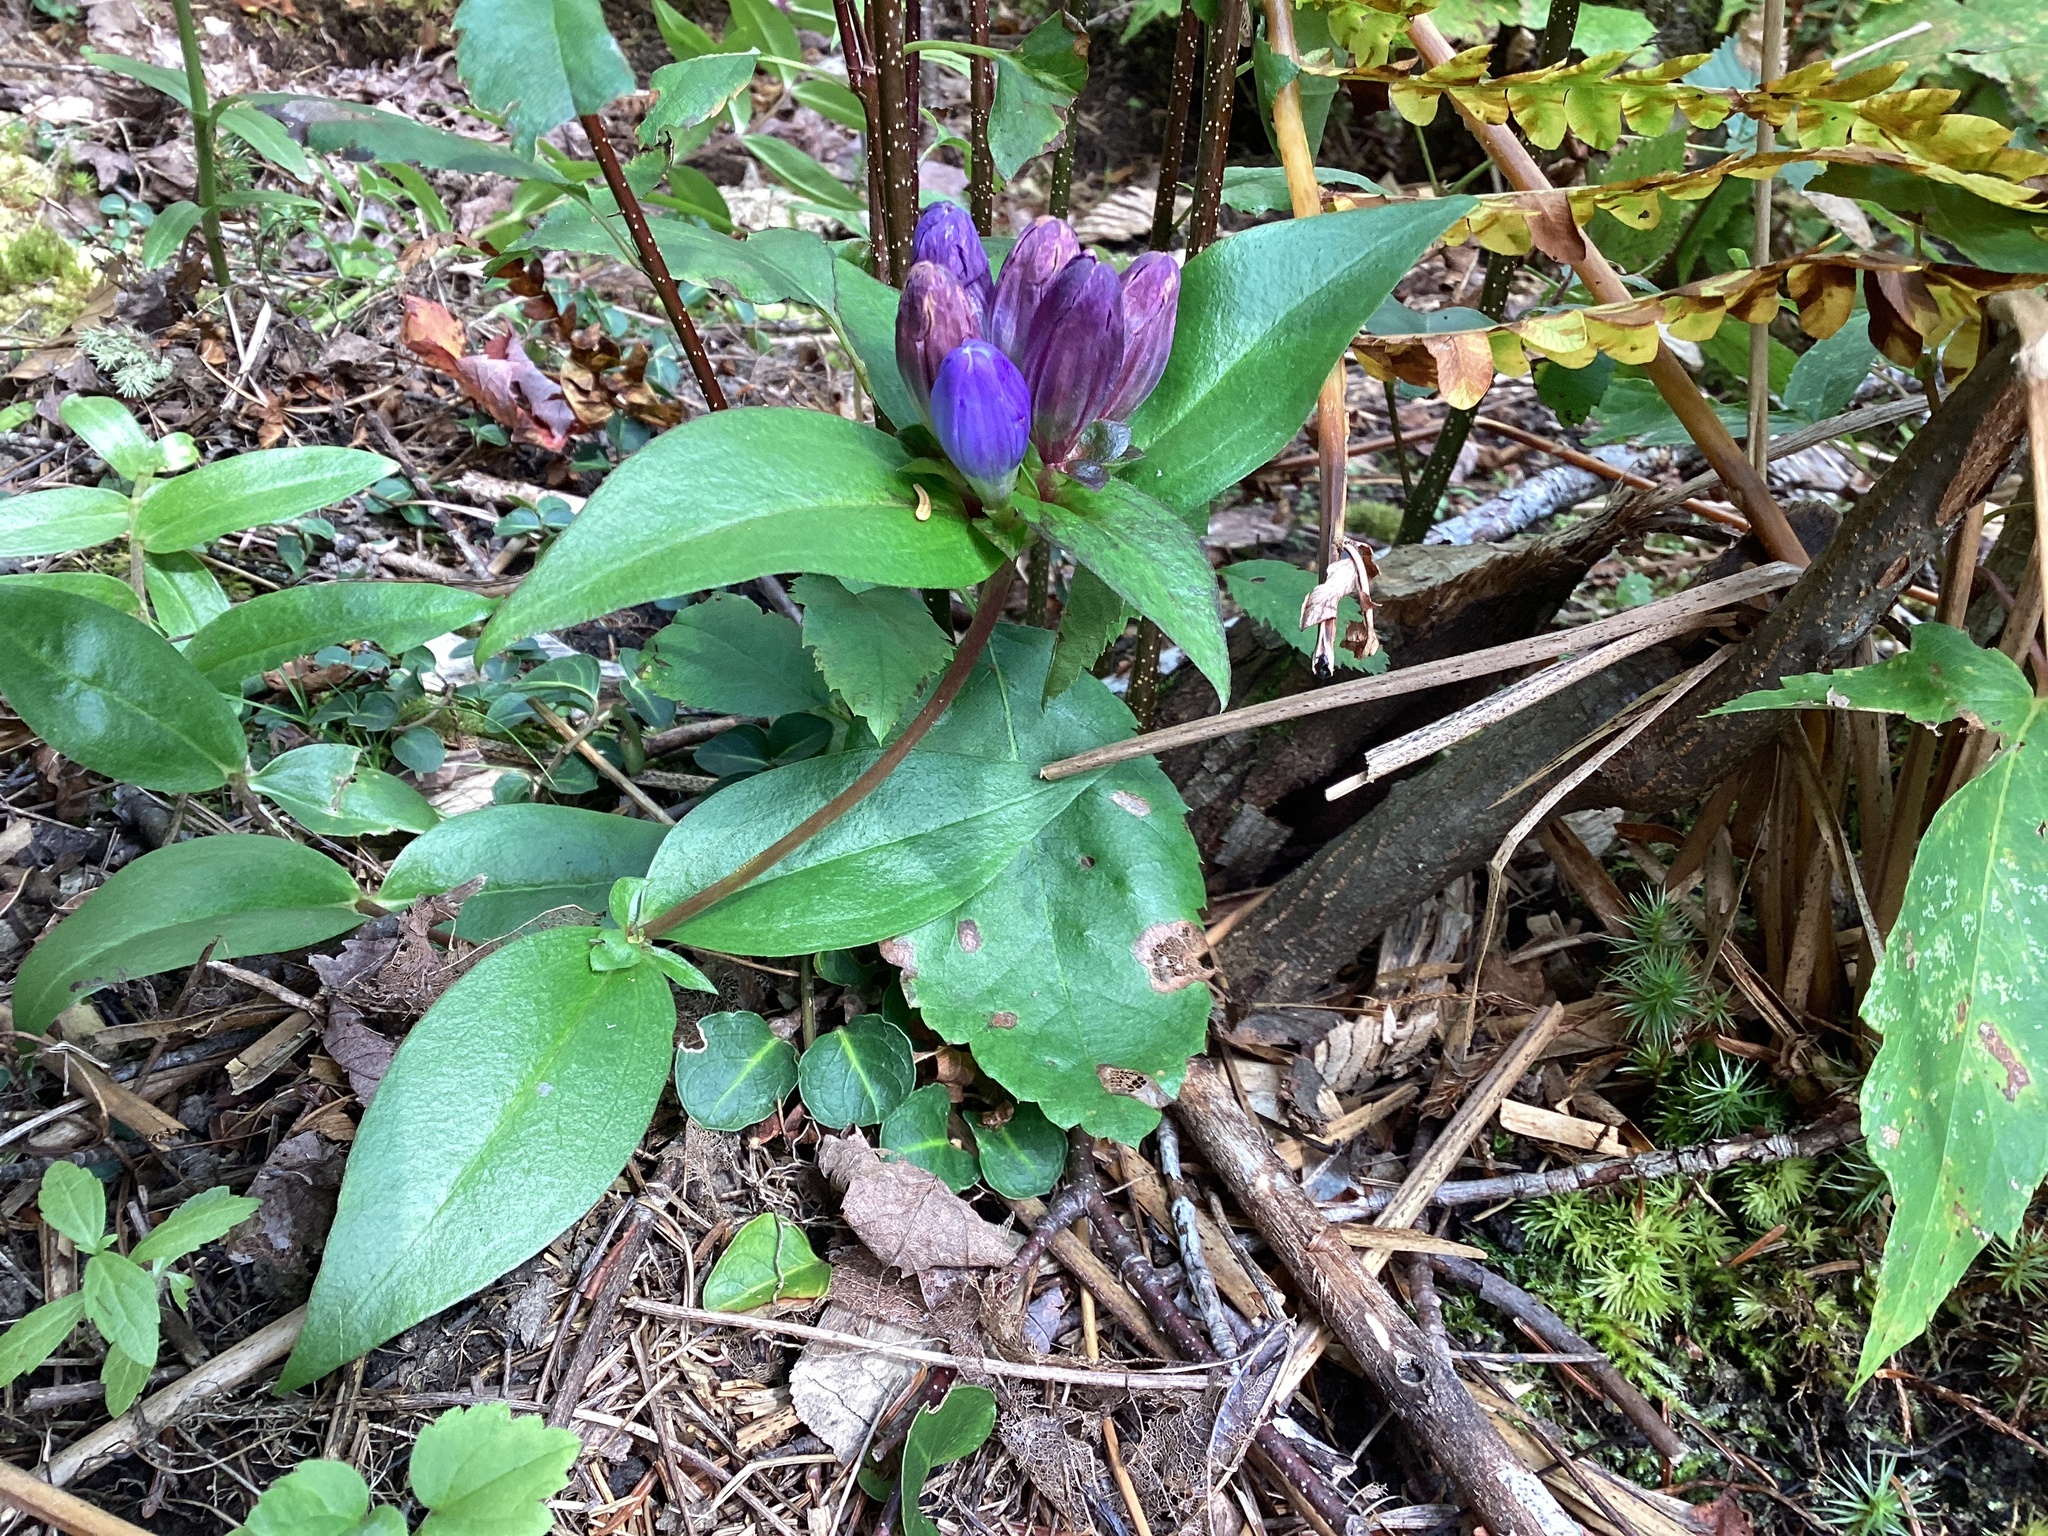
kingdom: Plantae
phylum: Tracheophyta
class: Magnoliopsida
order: Gentianales
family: Gentianaceae
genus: Gentiana
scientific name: Gentiana clausa
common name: Blind gentian
